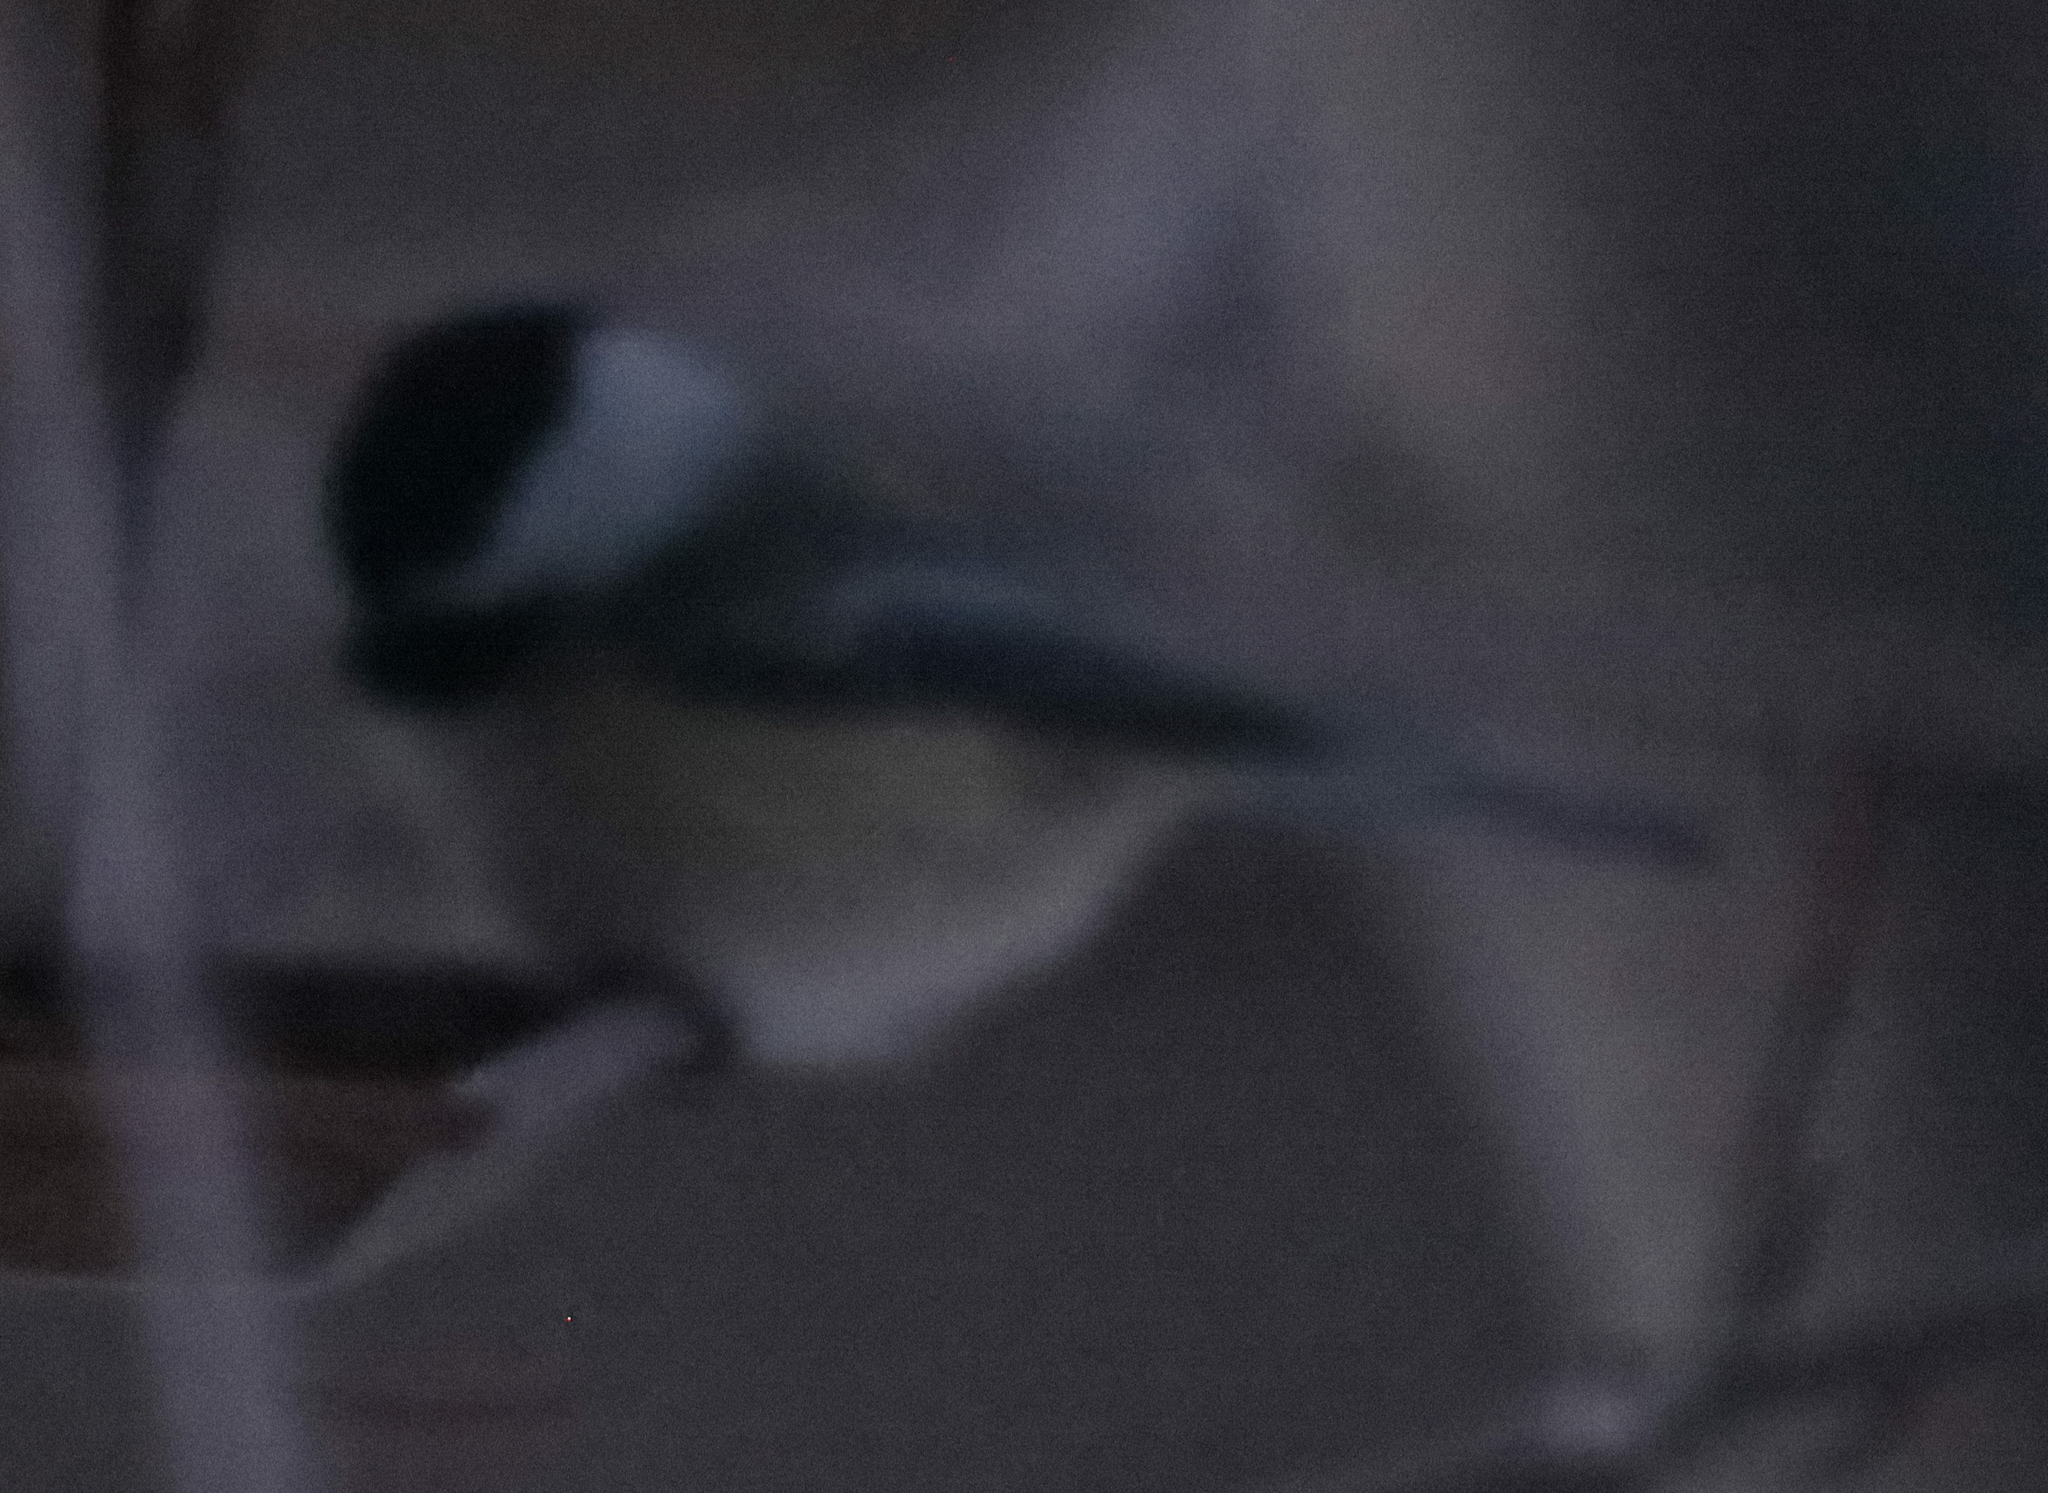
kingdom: Animalia
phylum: Chordata
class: Aves
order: Passeriformes
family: Paridae
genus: Poecile
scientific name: Poecile atricapillus
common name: Black-capped chickadee
